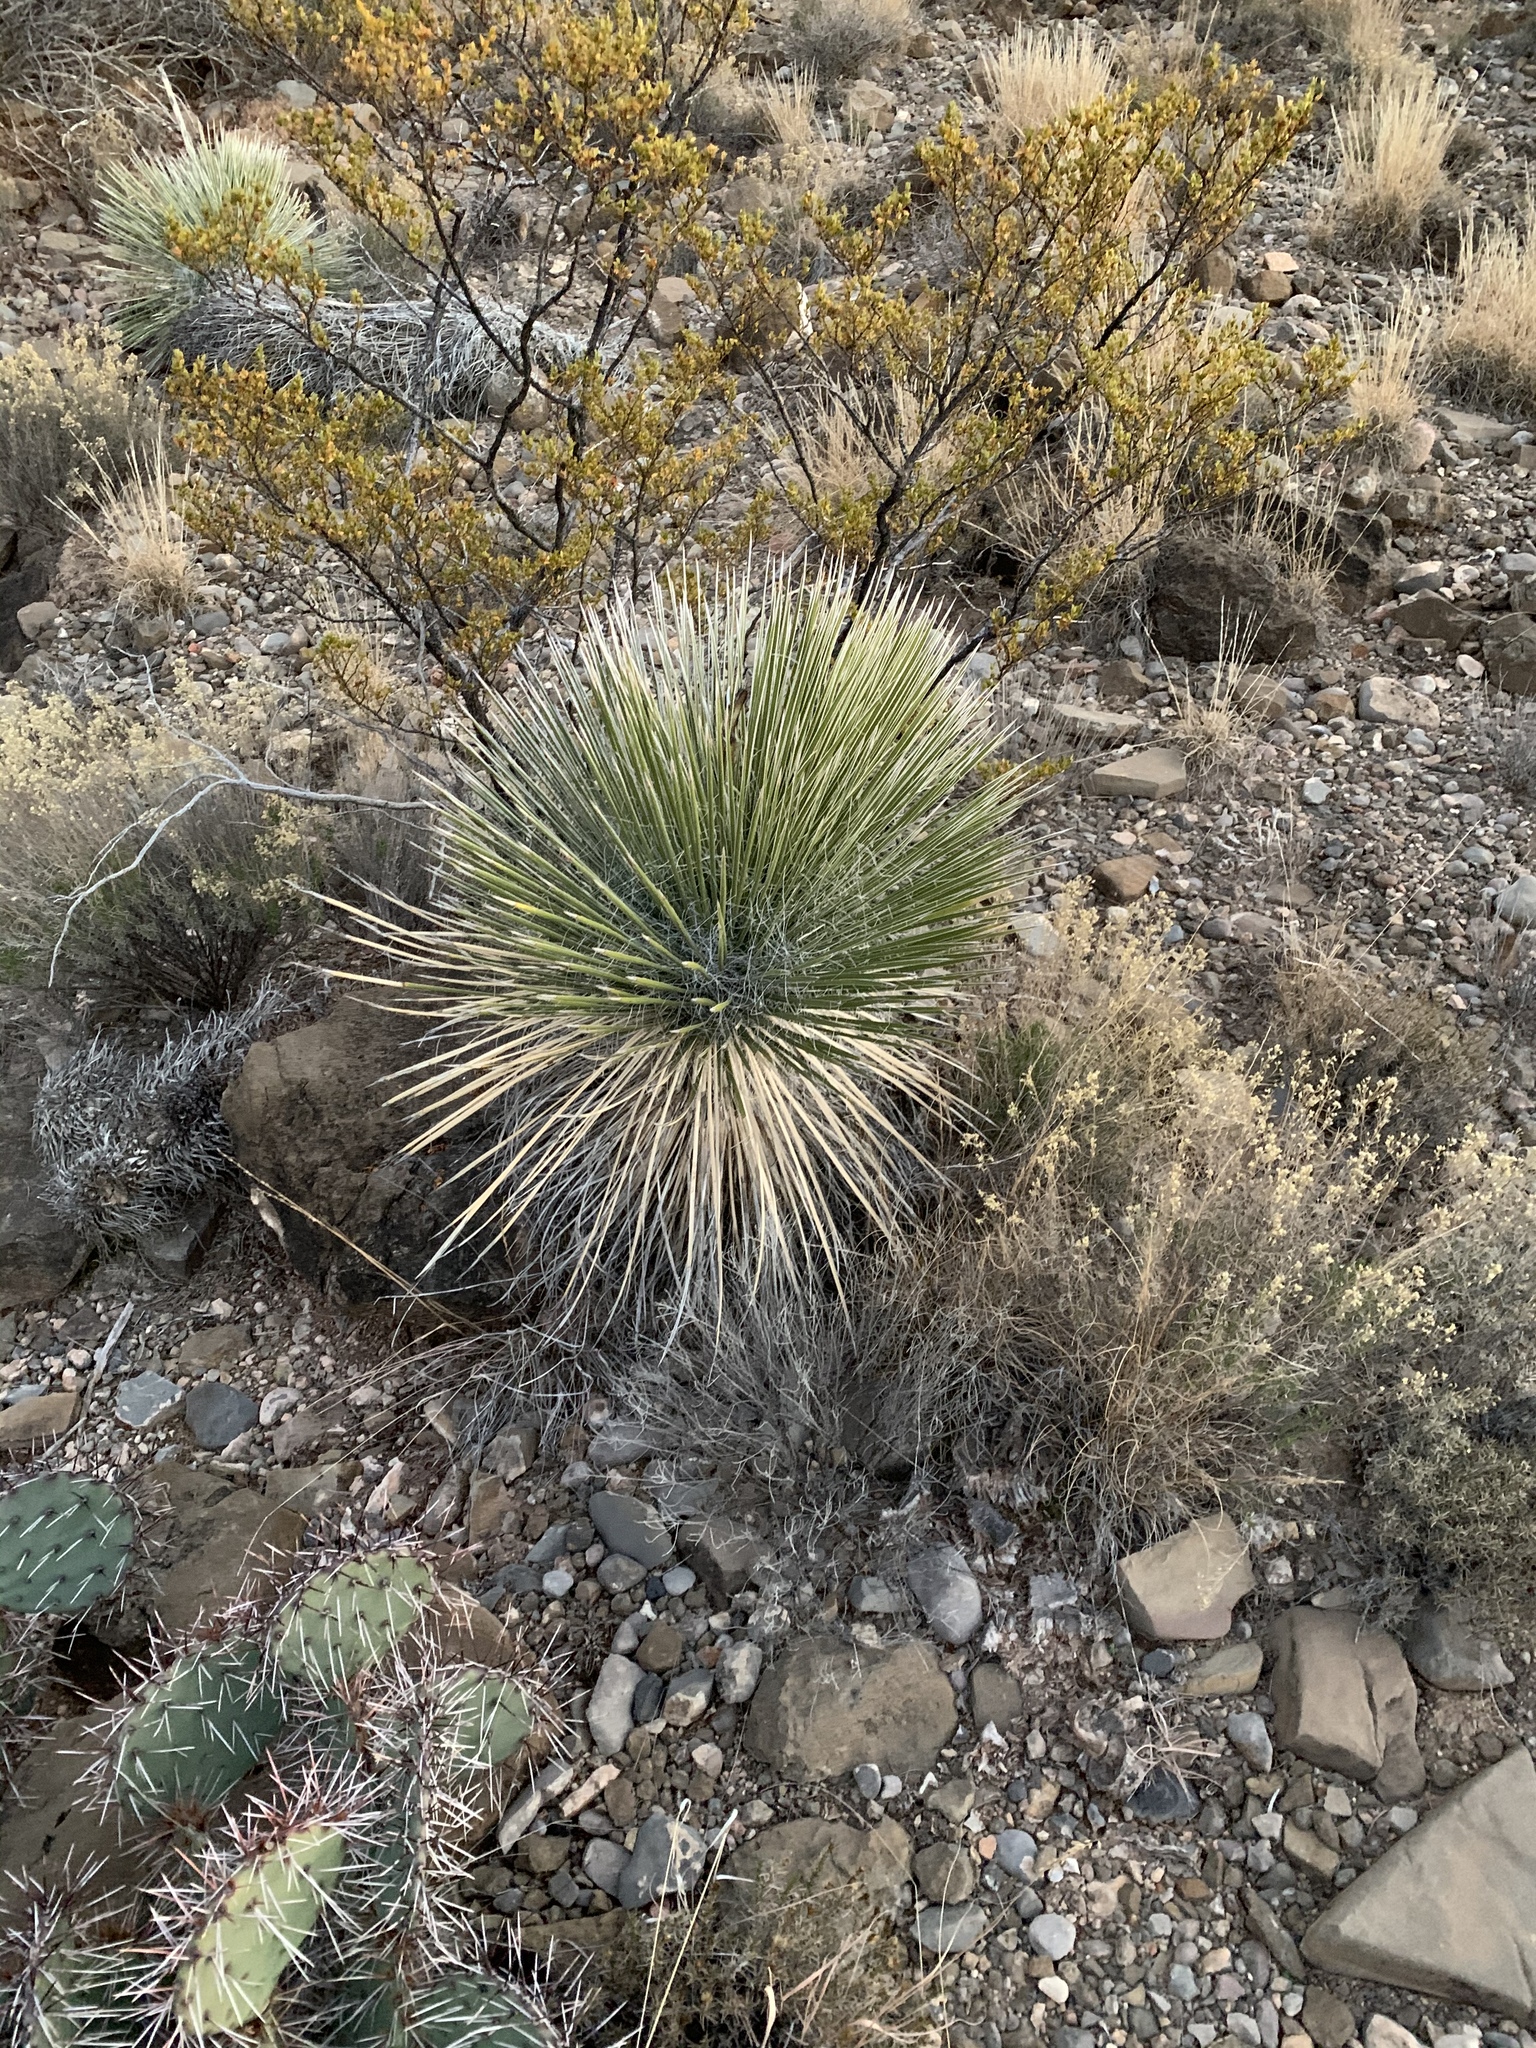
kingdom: Plantae
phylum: Tracheophyta
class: Liliopsida
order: Asparagales
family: Asparagaceae
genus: Yucca
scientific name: Yucca elata
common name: Palmella
